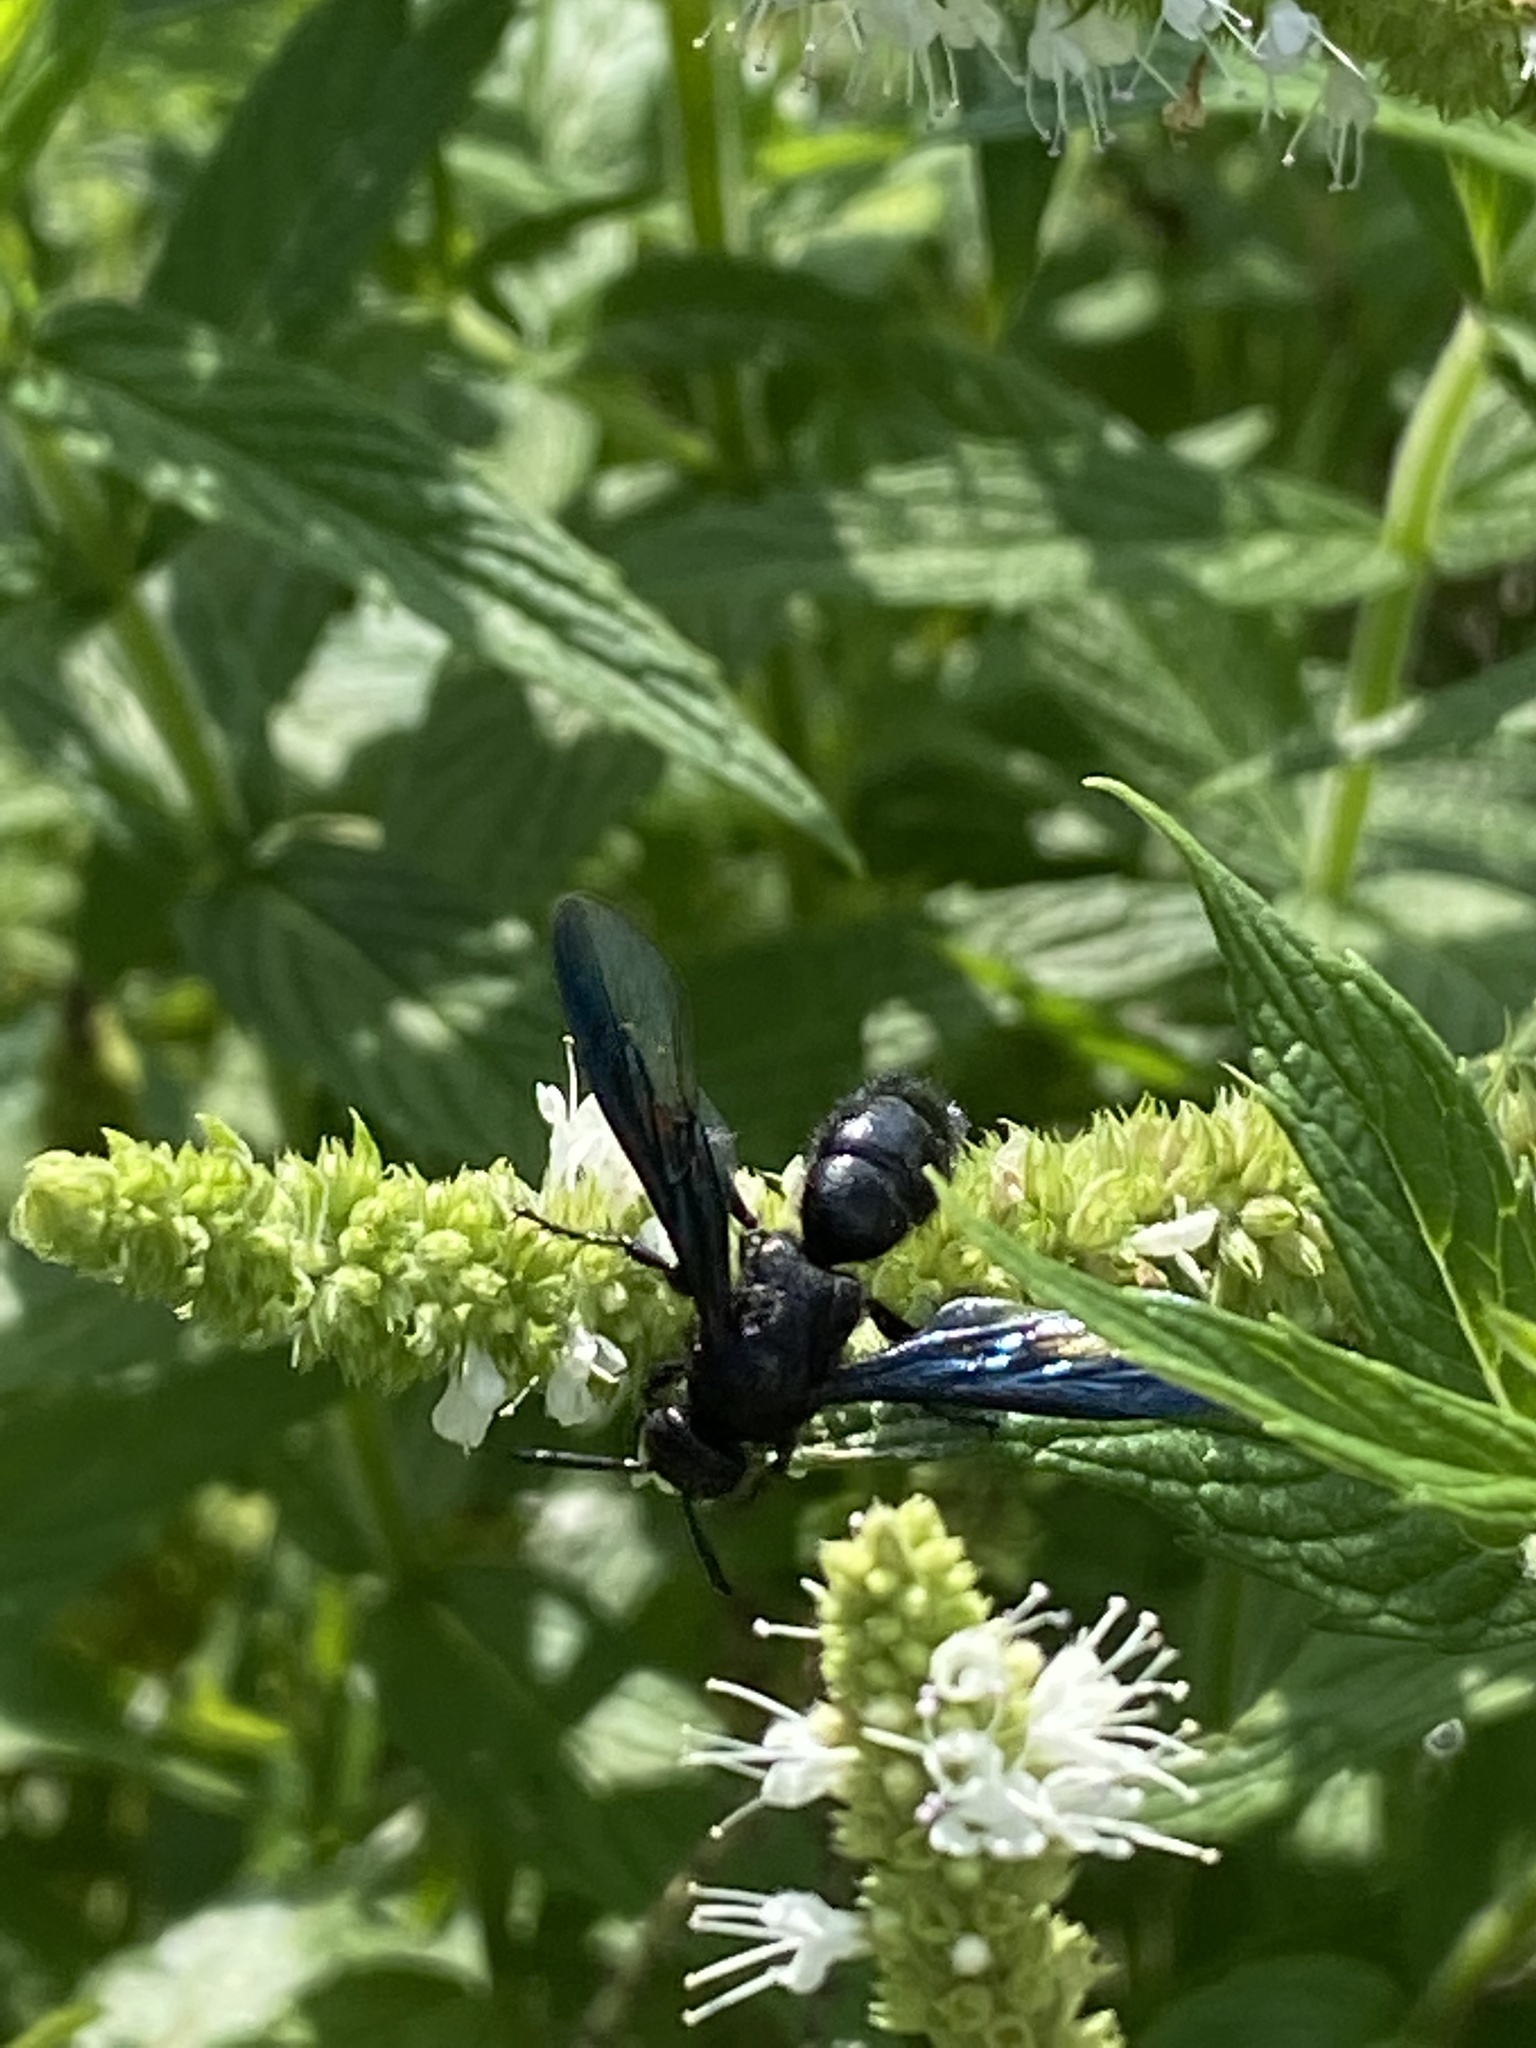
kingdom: Animalia
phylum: Arthropoda
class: Insecta
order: Hymenoptera
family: Scoliidae
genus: Liacos
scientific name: Liacos
